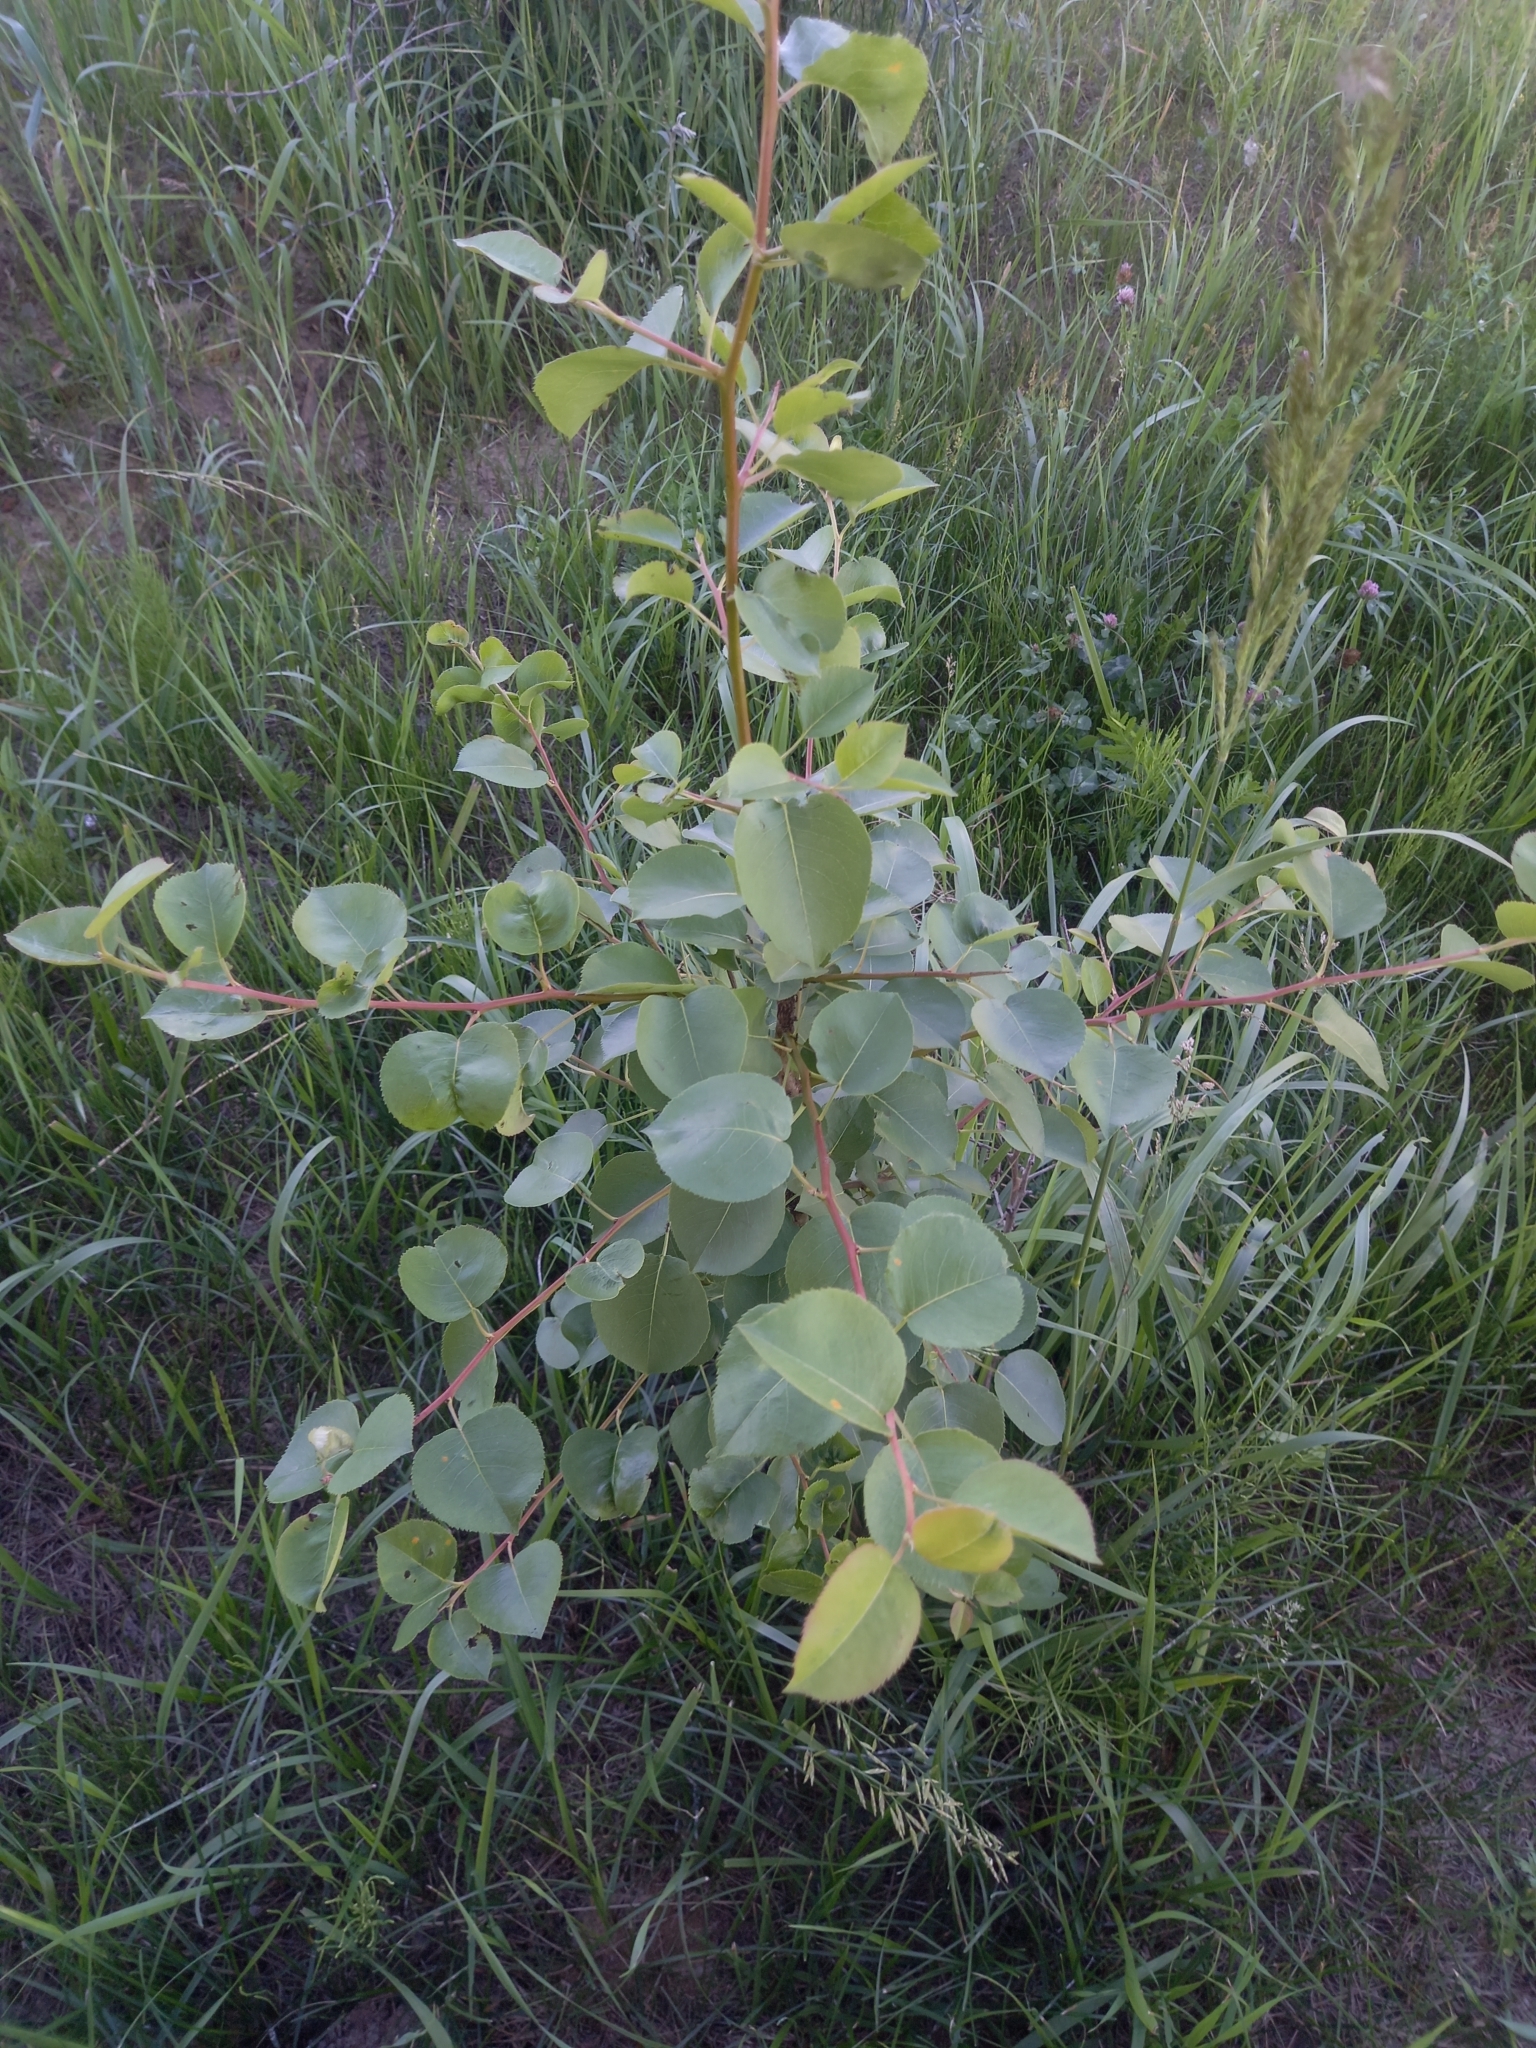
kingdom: Plantae
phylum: Tracheophyta
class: Magnoliopsida
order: Rosales
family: Rosaceae
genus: Pyrus
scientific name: Pyrus communis
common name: Pear
